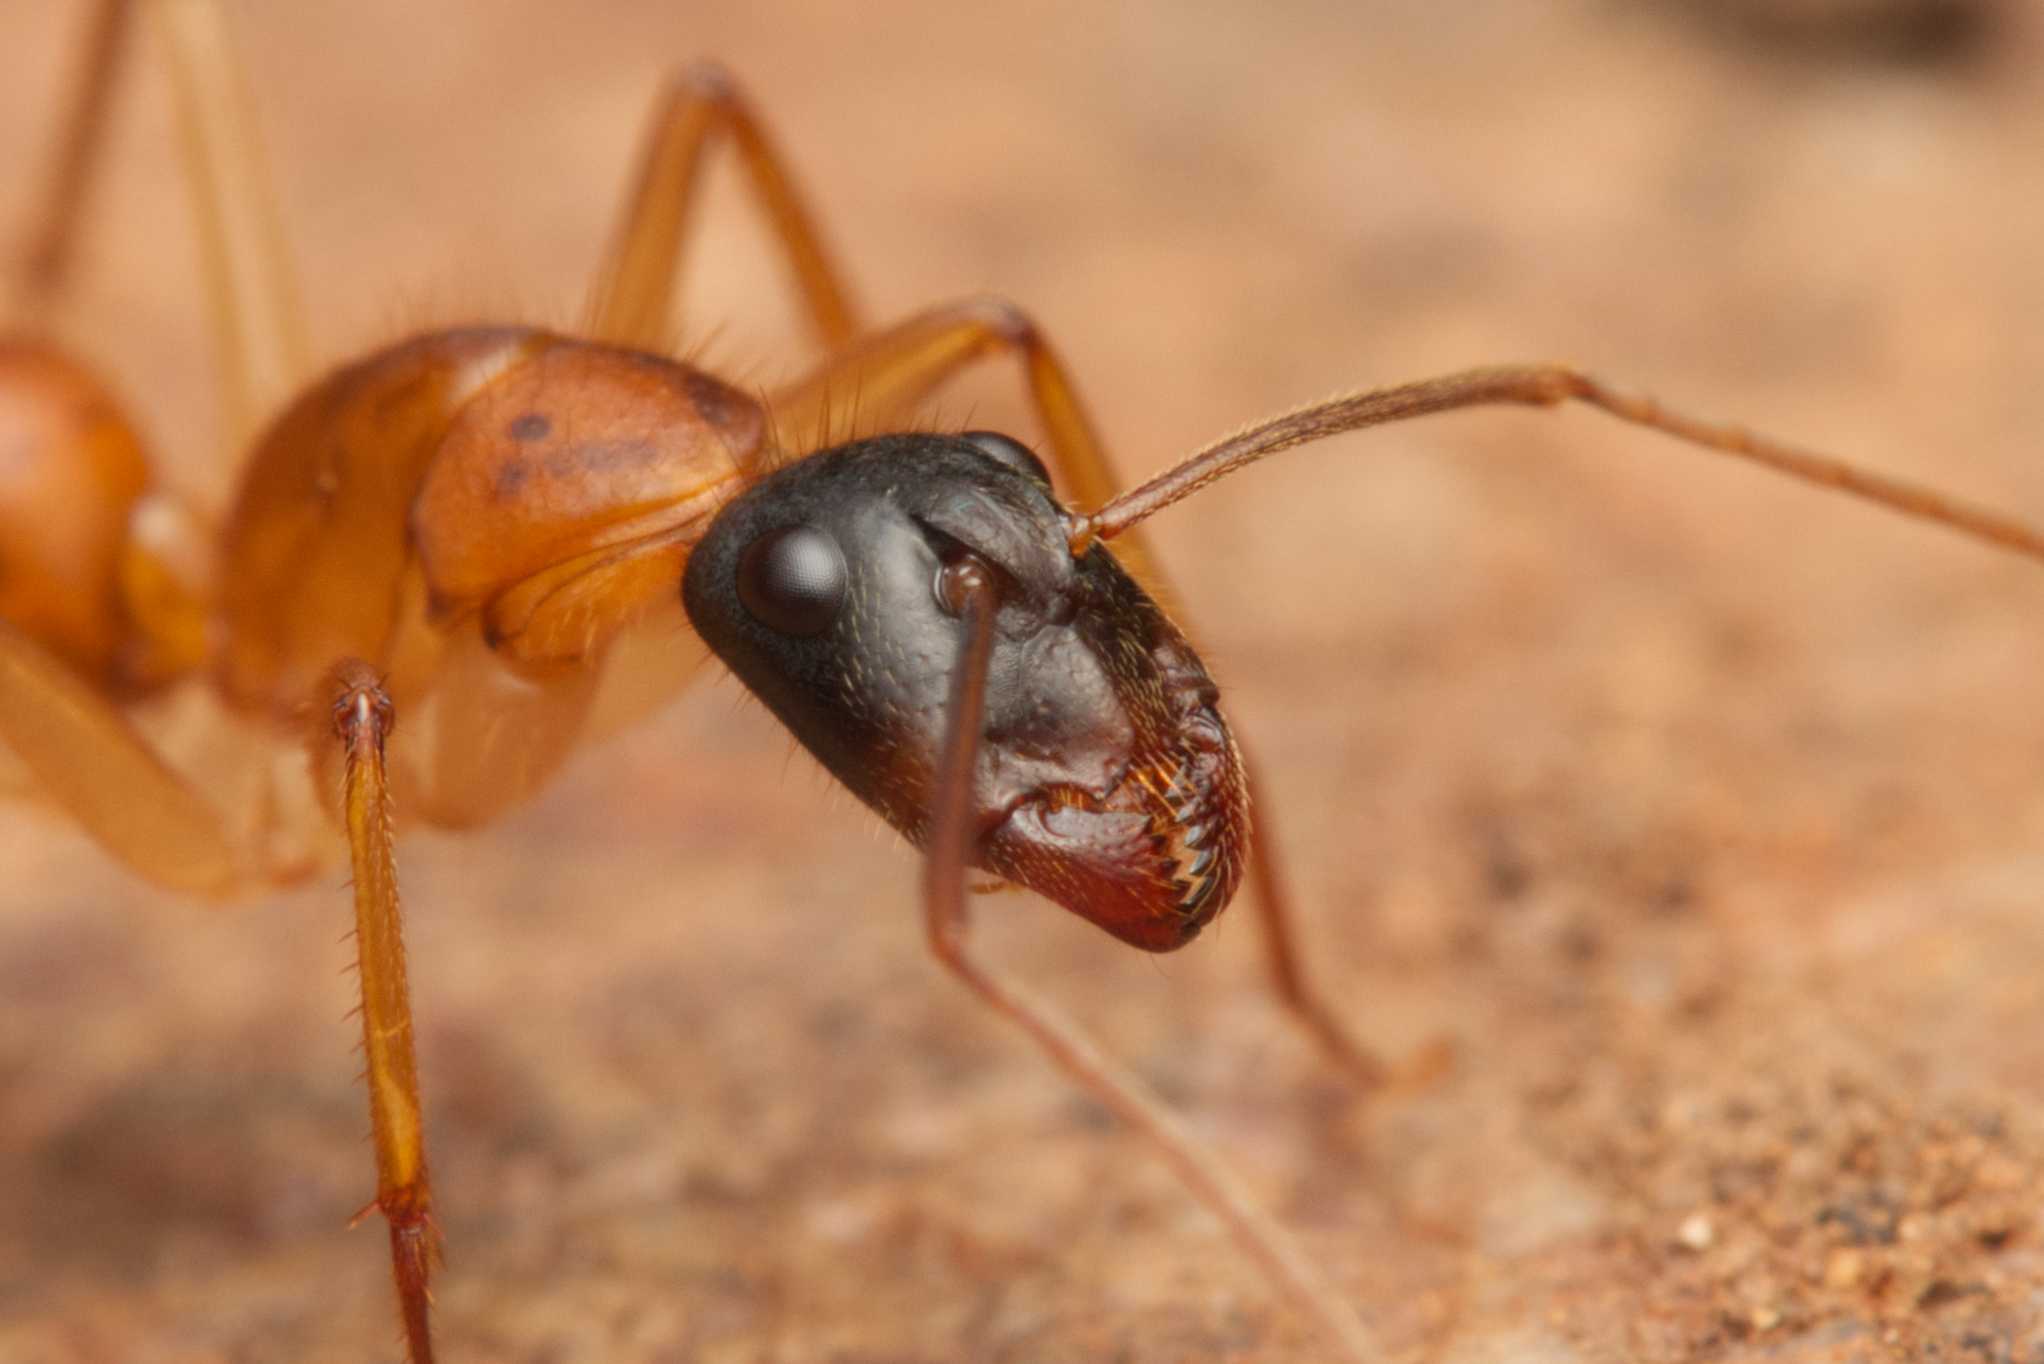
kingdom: Animalia
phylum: Arthropoda
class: Insecta
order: Hymenoptera
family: Formicidae
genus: Camponotus
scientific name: Camponotus eastwoodi
